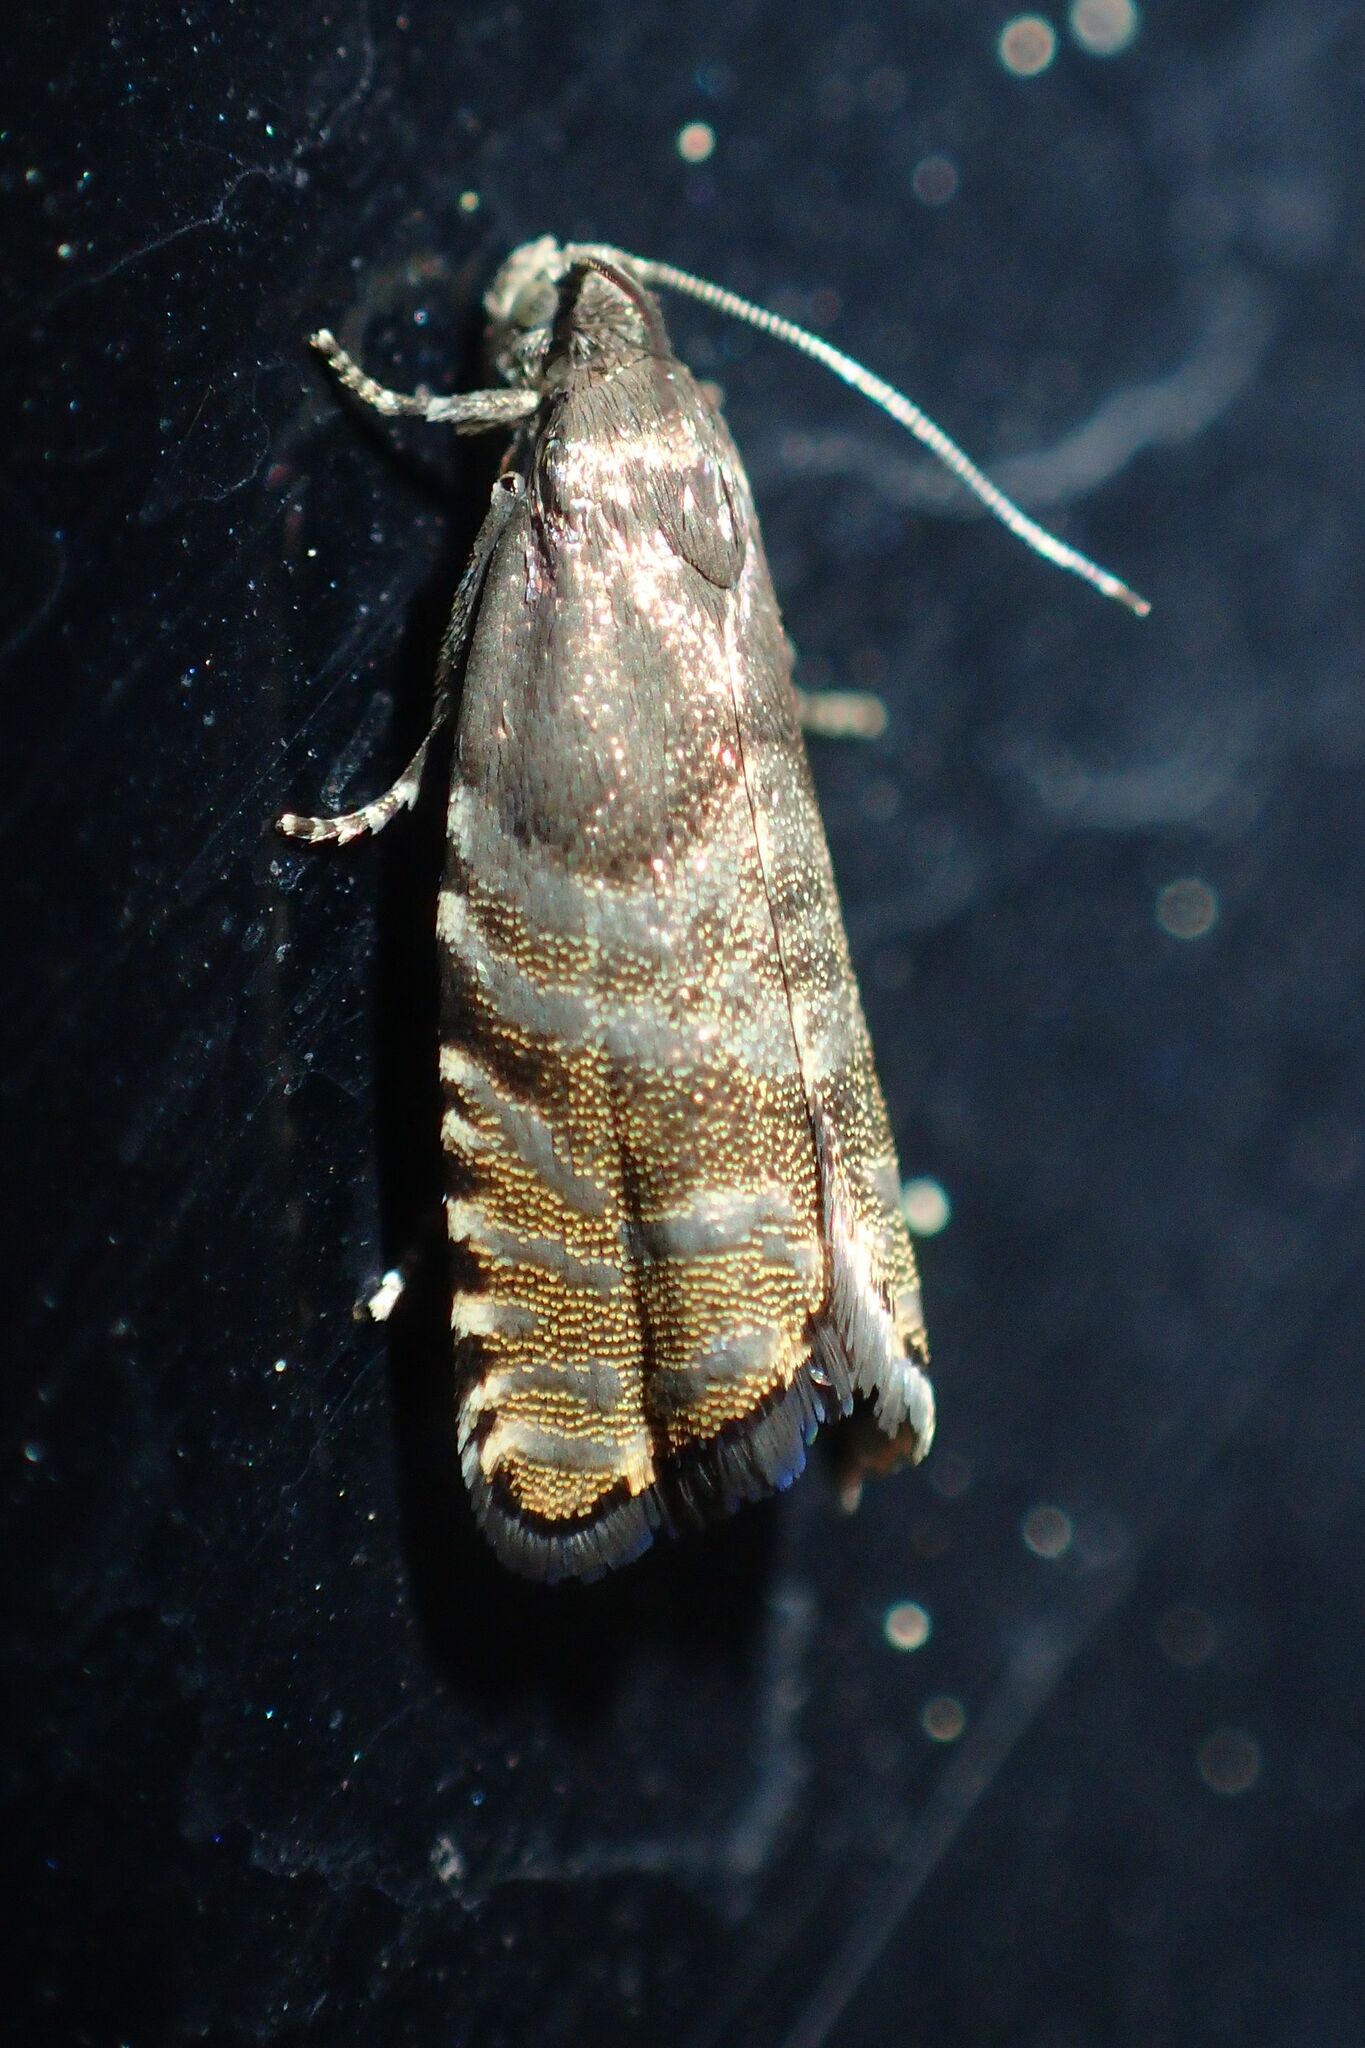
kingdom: Animalia
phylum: Arthropoda
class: Insecta
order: Lepidoptera
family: Tortricidae
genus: Cydia
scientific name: Cydia strobilella
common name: Spruce seed moth
